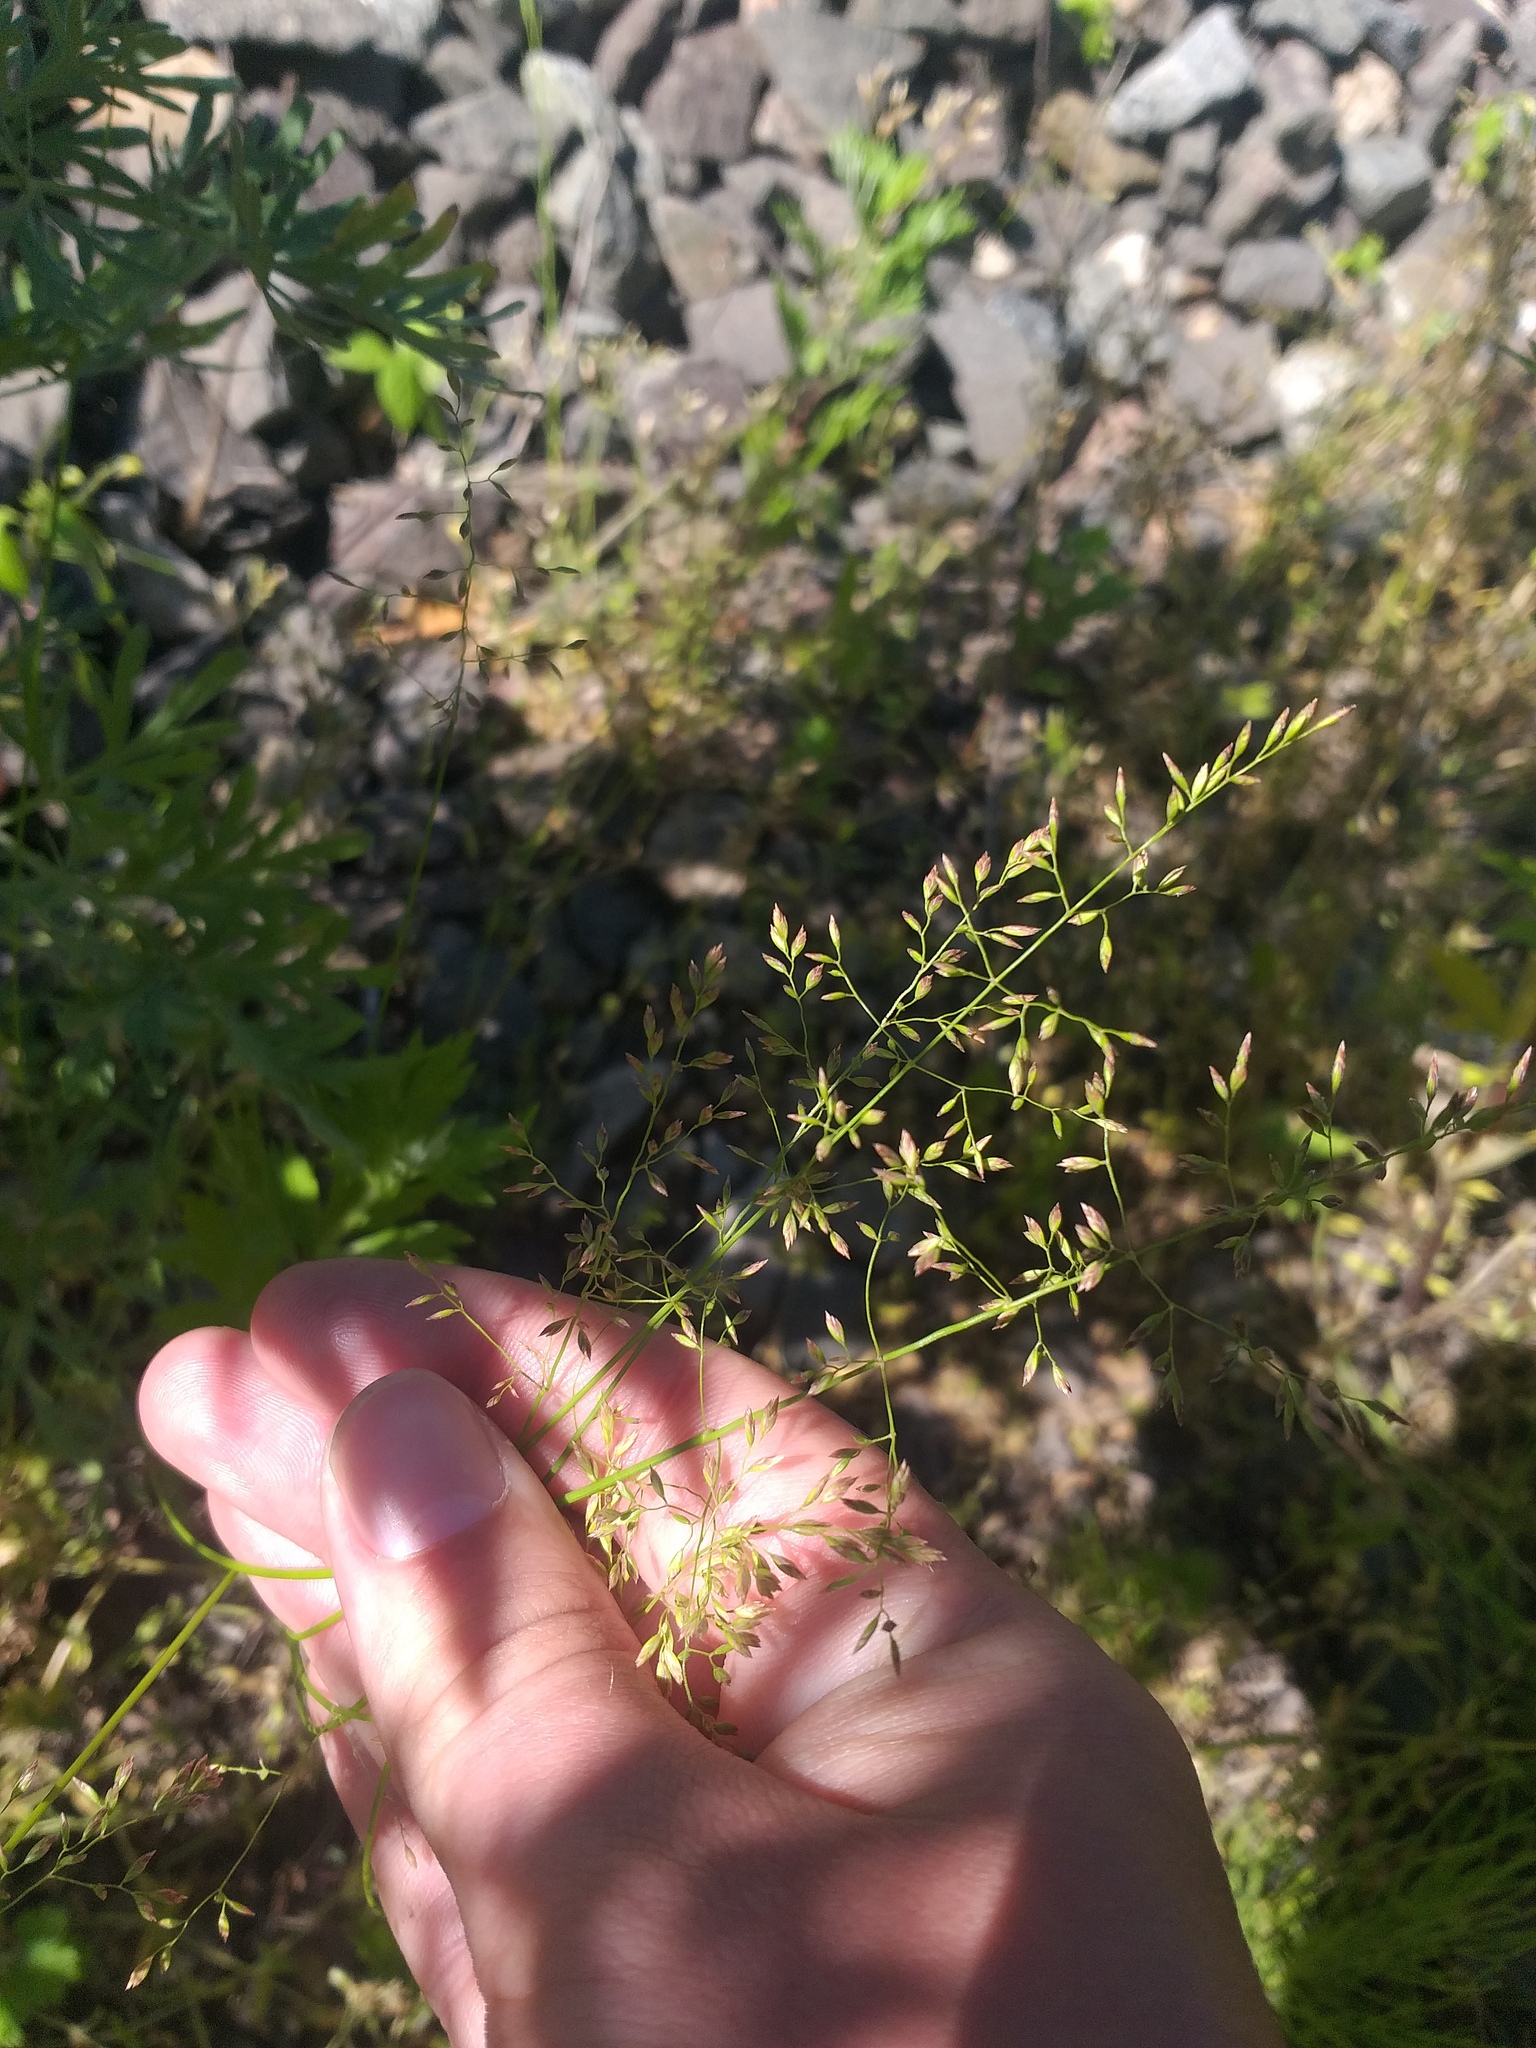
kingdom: Plantae
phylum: Tracheophyta
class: Liliopsida
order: Poales
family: Poaceae
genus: Poa
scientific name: Poa compressa
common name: Canada bluegrass
